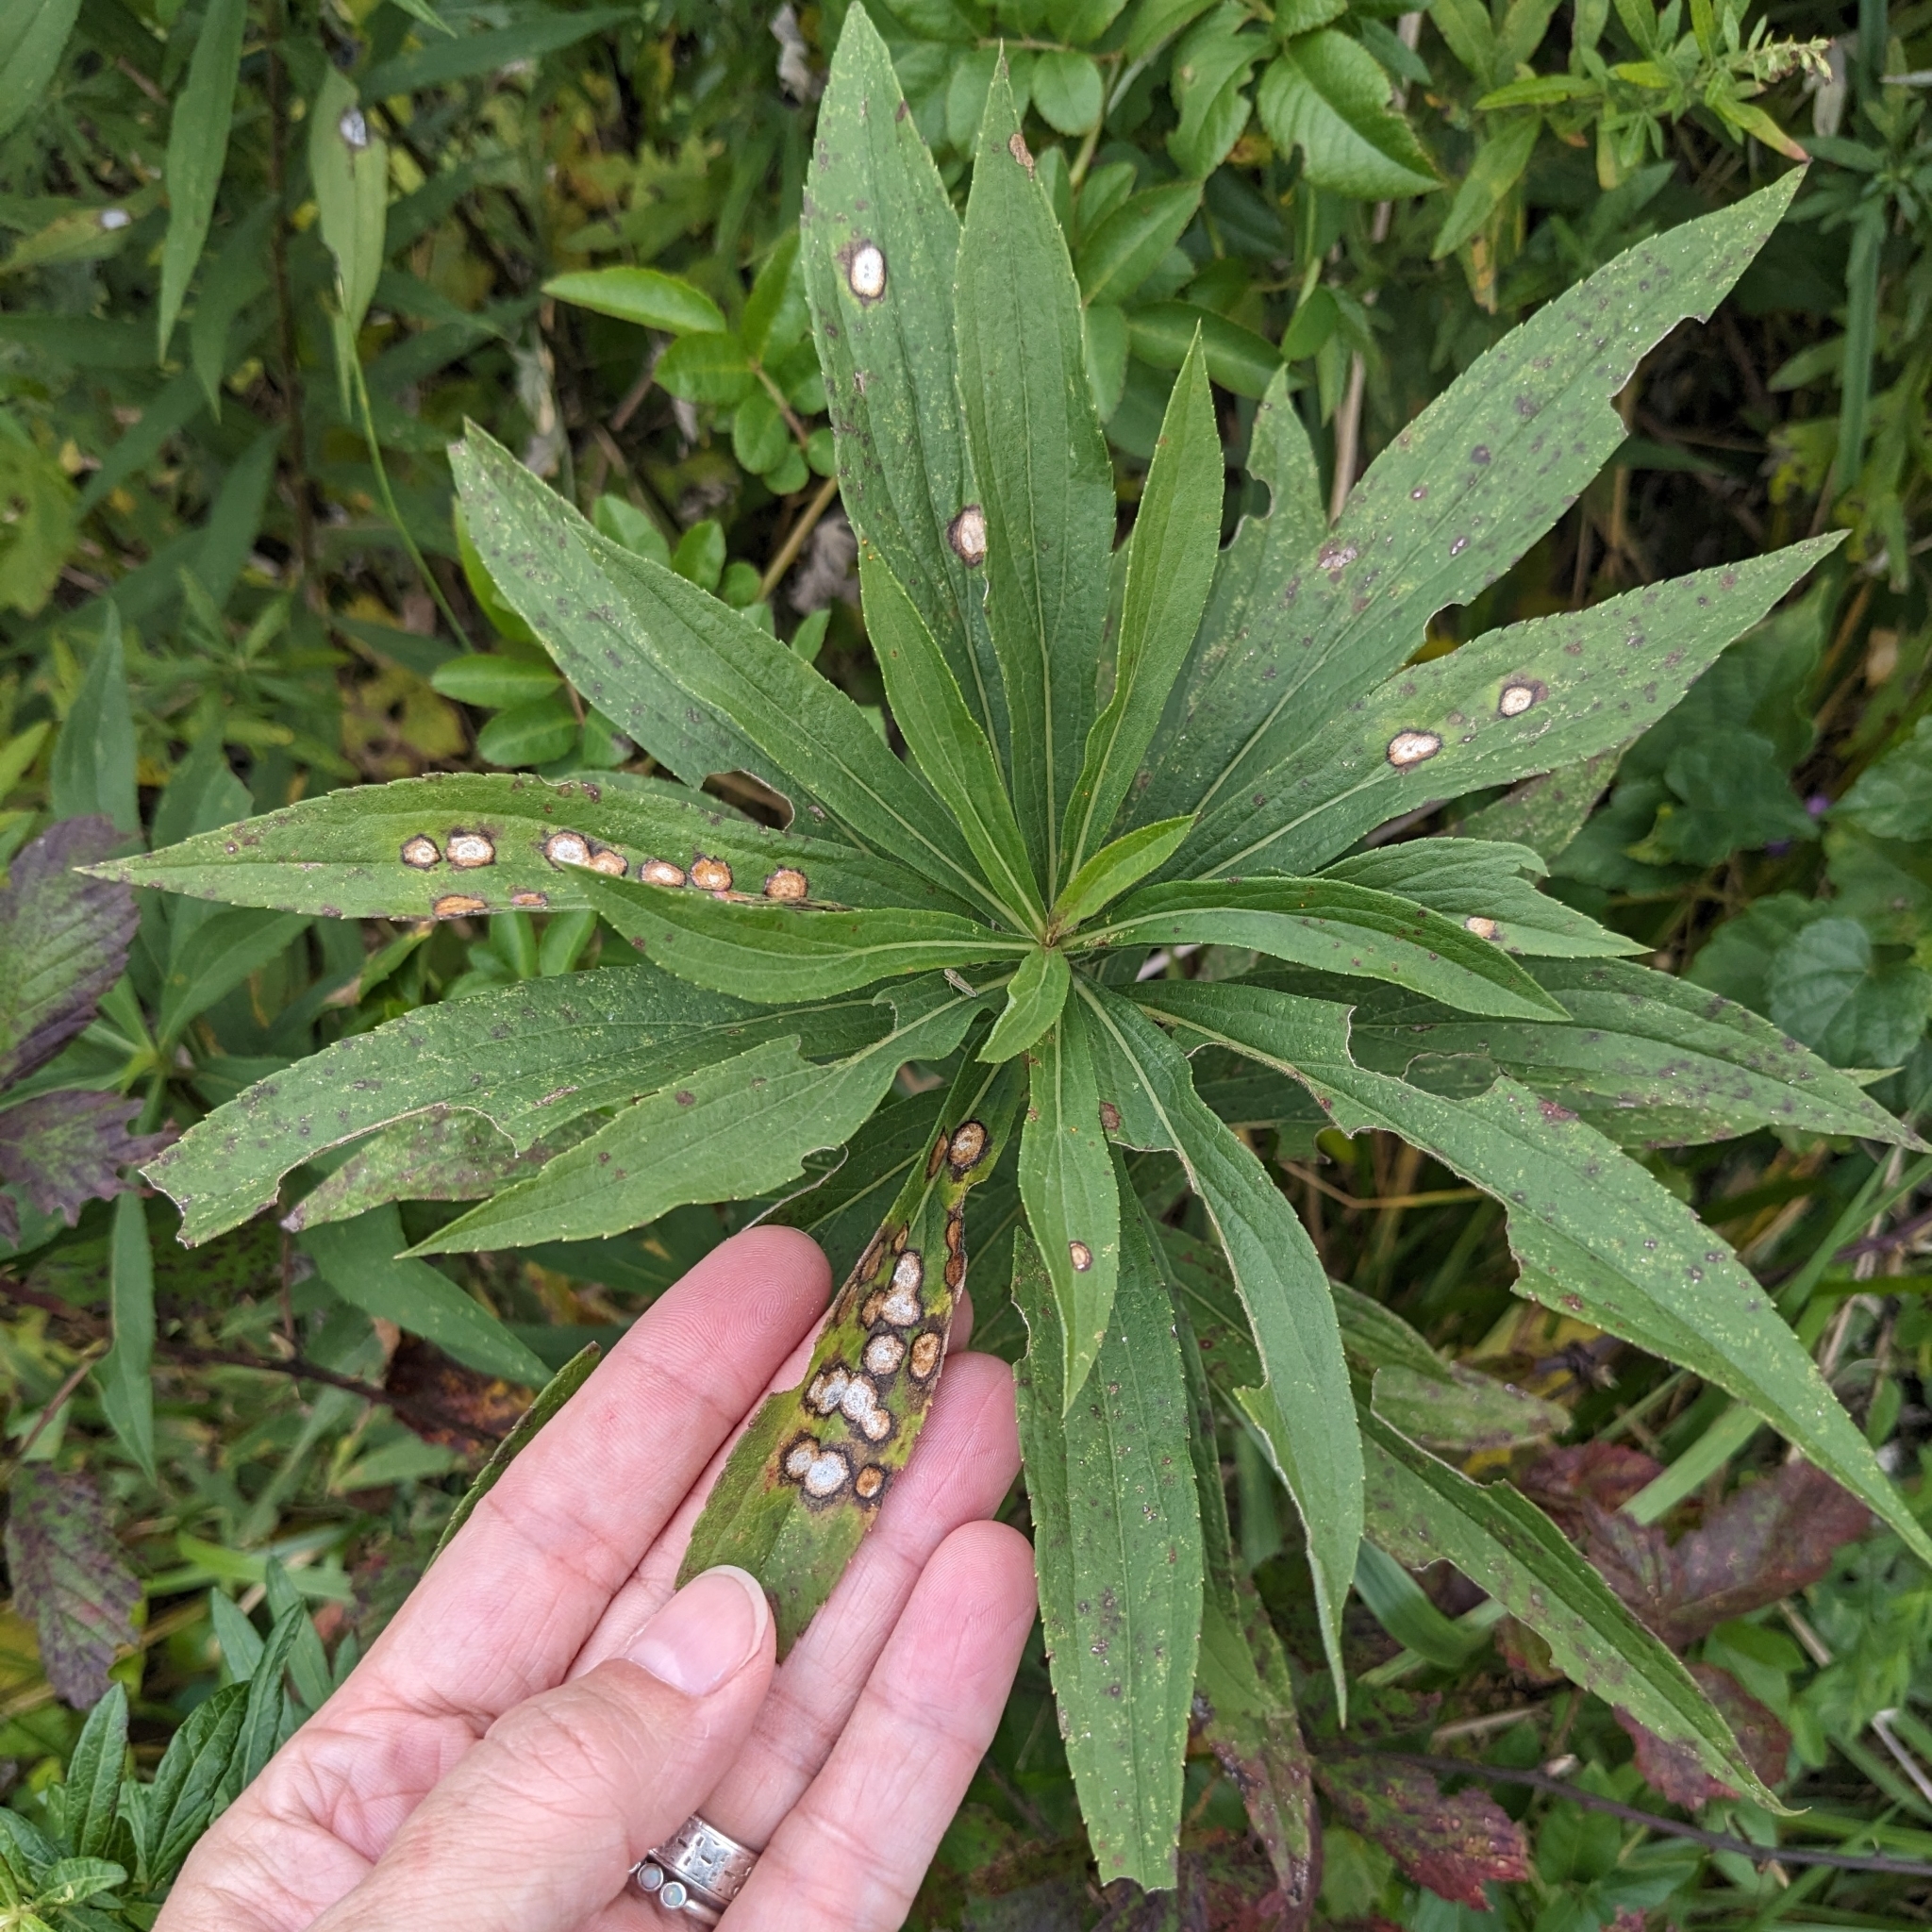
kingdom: Animalia
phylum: Arthropoda
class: Insecta
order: Diptera
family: Cecidomyiidae
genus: Asteromyia
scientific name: Asteromyia carbonifera
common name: Carbonifera goldenrod gall midge
